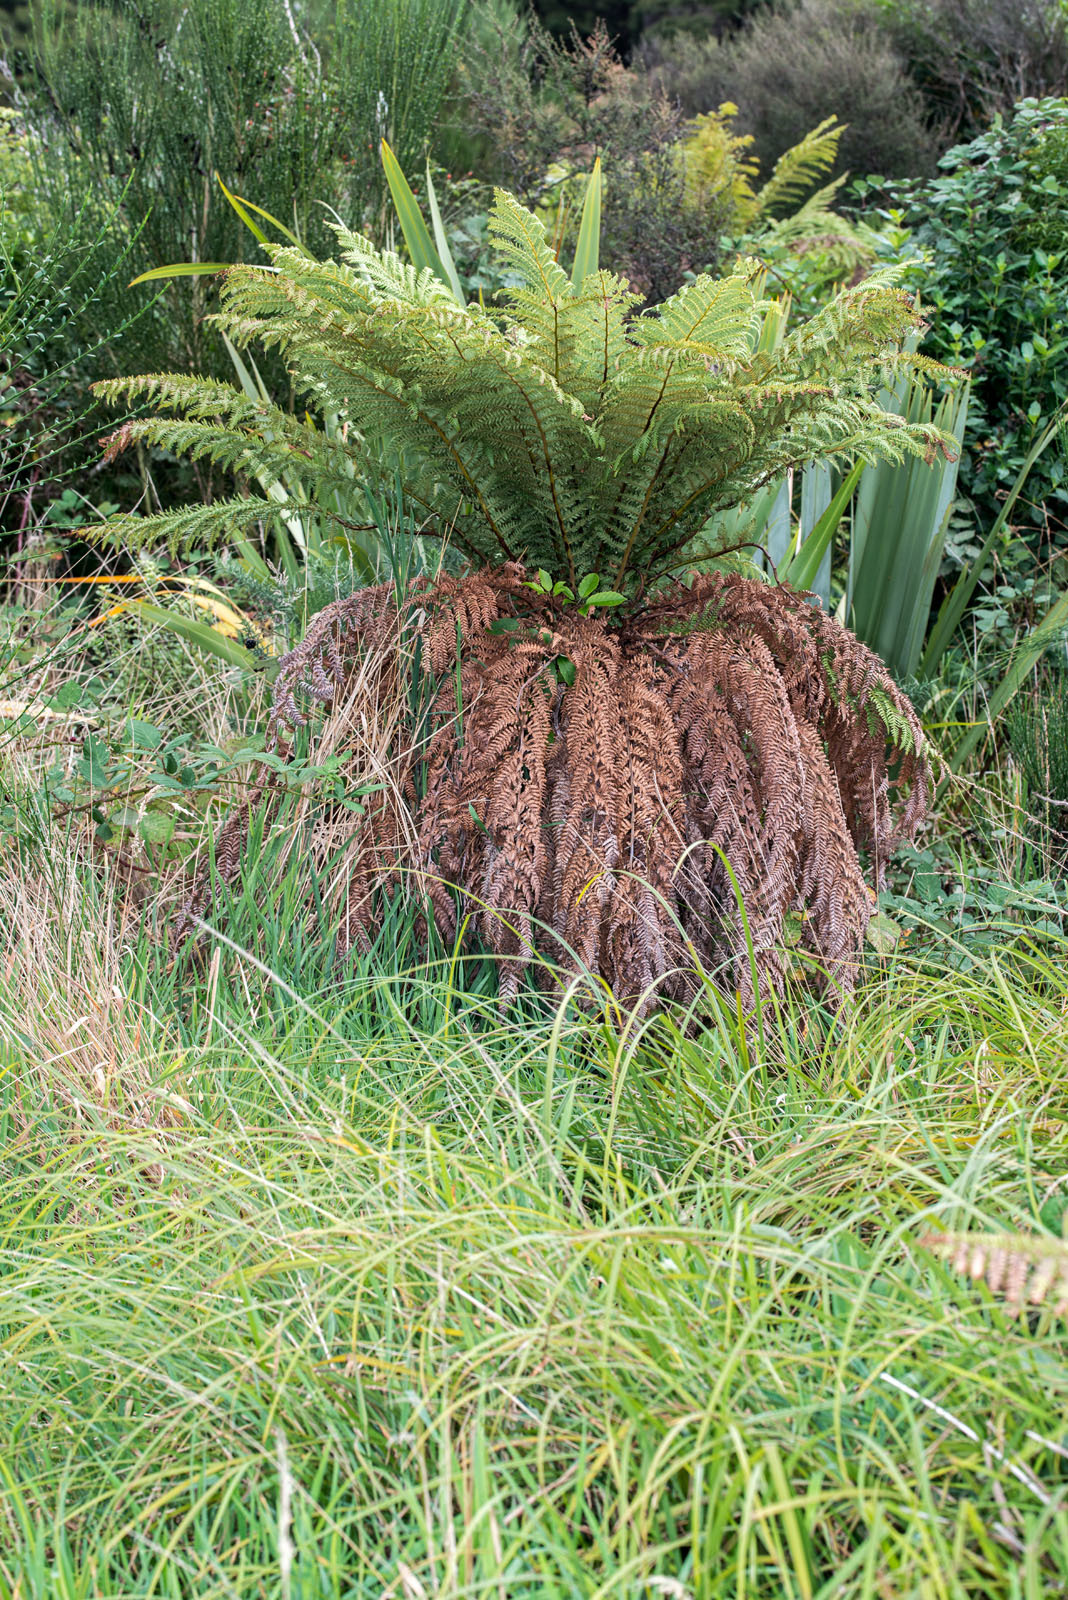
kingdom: Plantae
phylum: Tracheophyta
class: Polypodiopsida
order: Cyatheales
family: Dicksoniaceae
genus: Dicksonia
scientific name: Dicksonia fibrosa
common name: Golden tree fern
